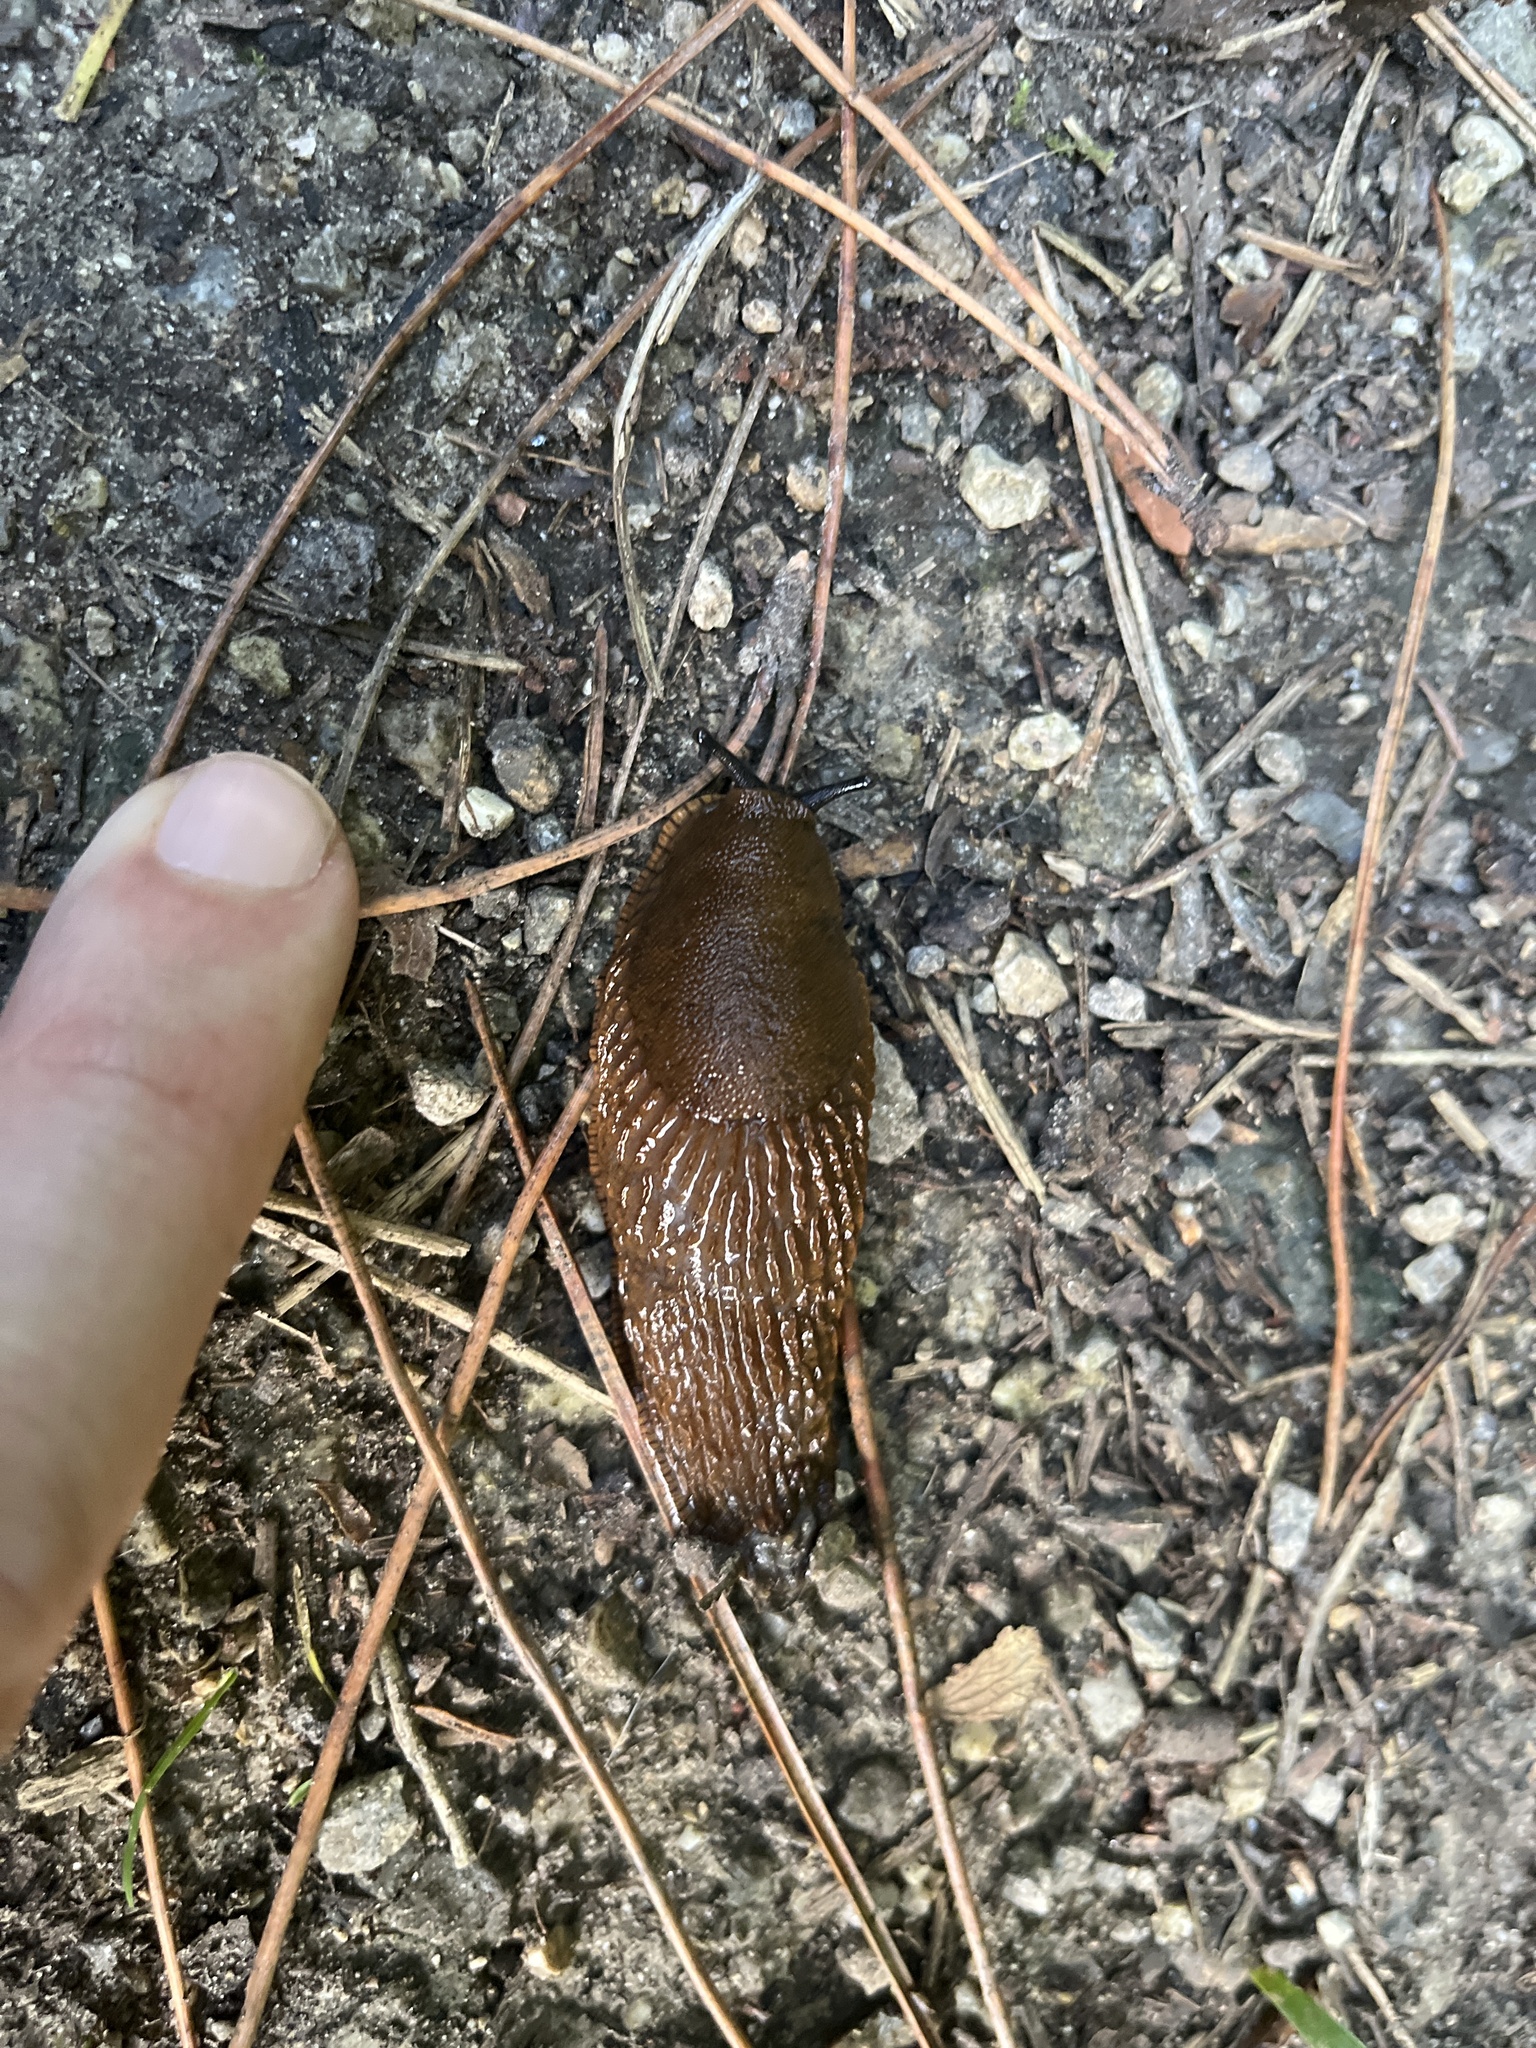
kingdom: Animalia
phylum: Mollusca
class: Gastropoda
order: Stylommatophora
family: Arionidae
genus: Arion
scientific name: Arion rufus
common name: Chocolate arion
